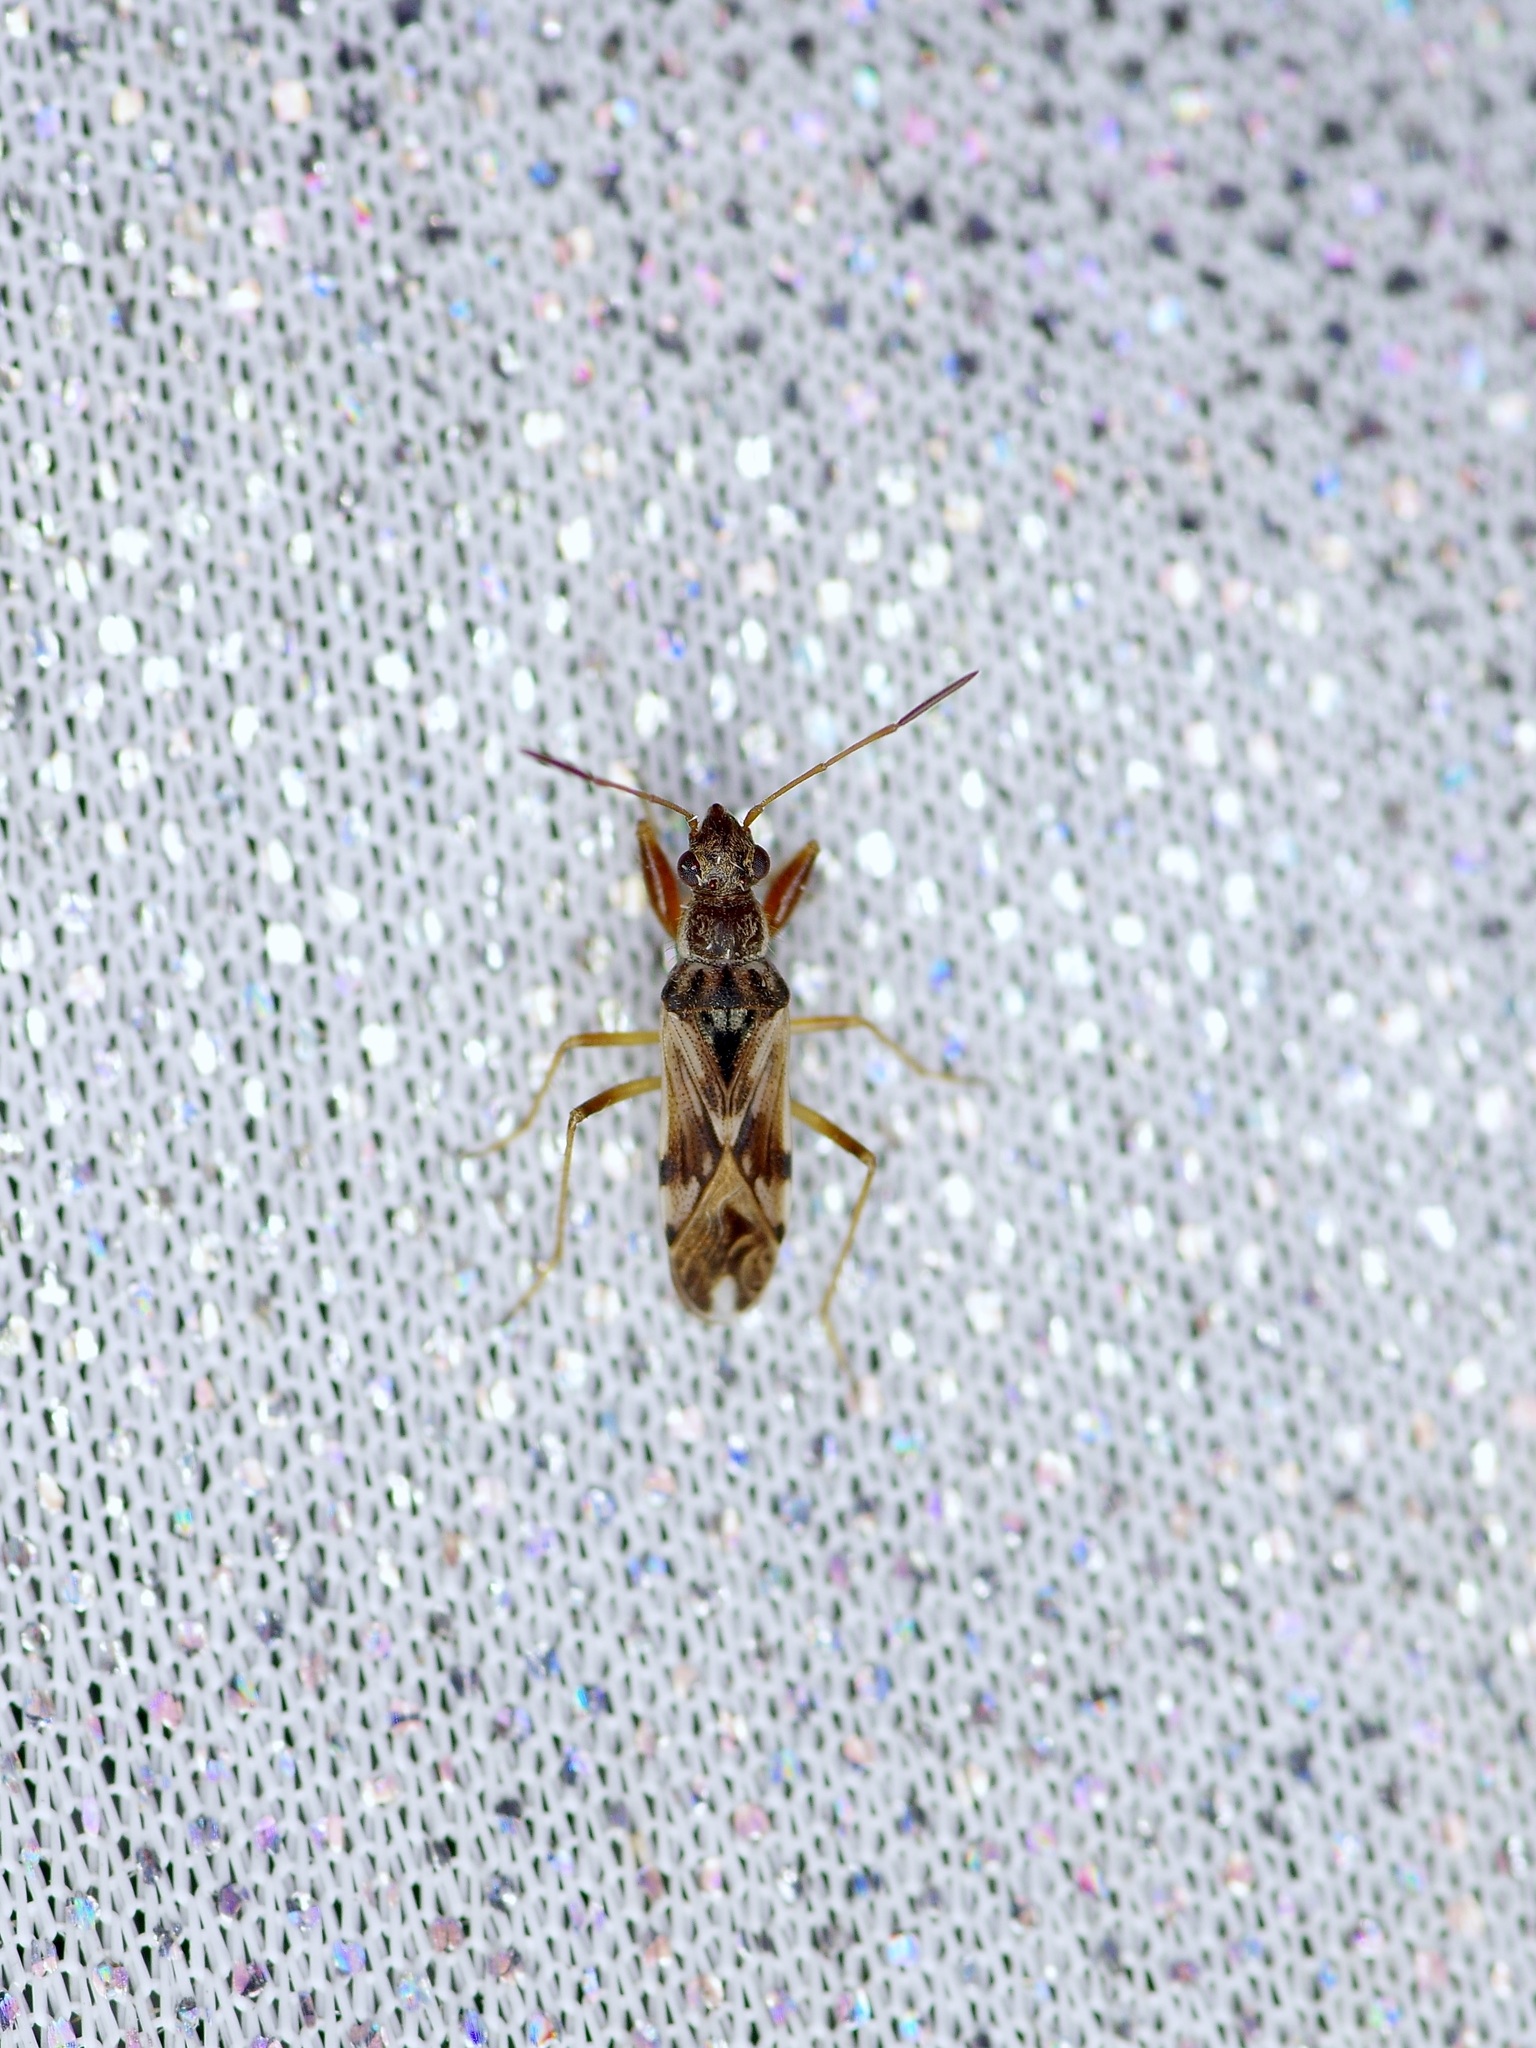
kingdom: Animalia
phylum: Arthropoda
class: Insecta
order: Hemiptera
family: Rhyparochromidae
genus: Neopamera
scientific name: Neopamera bilobata
